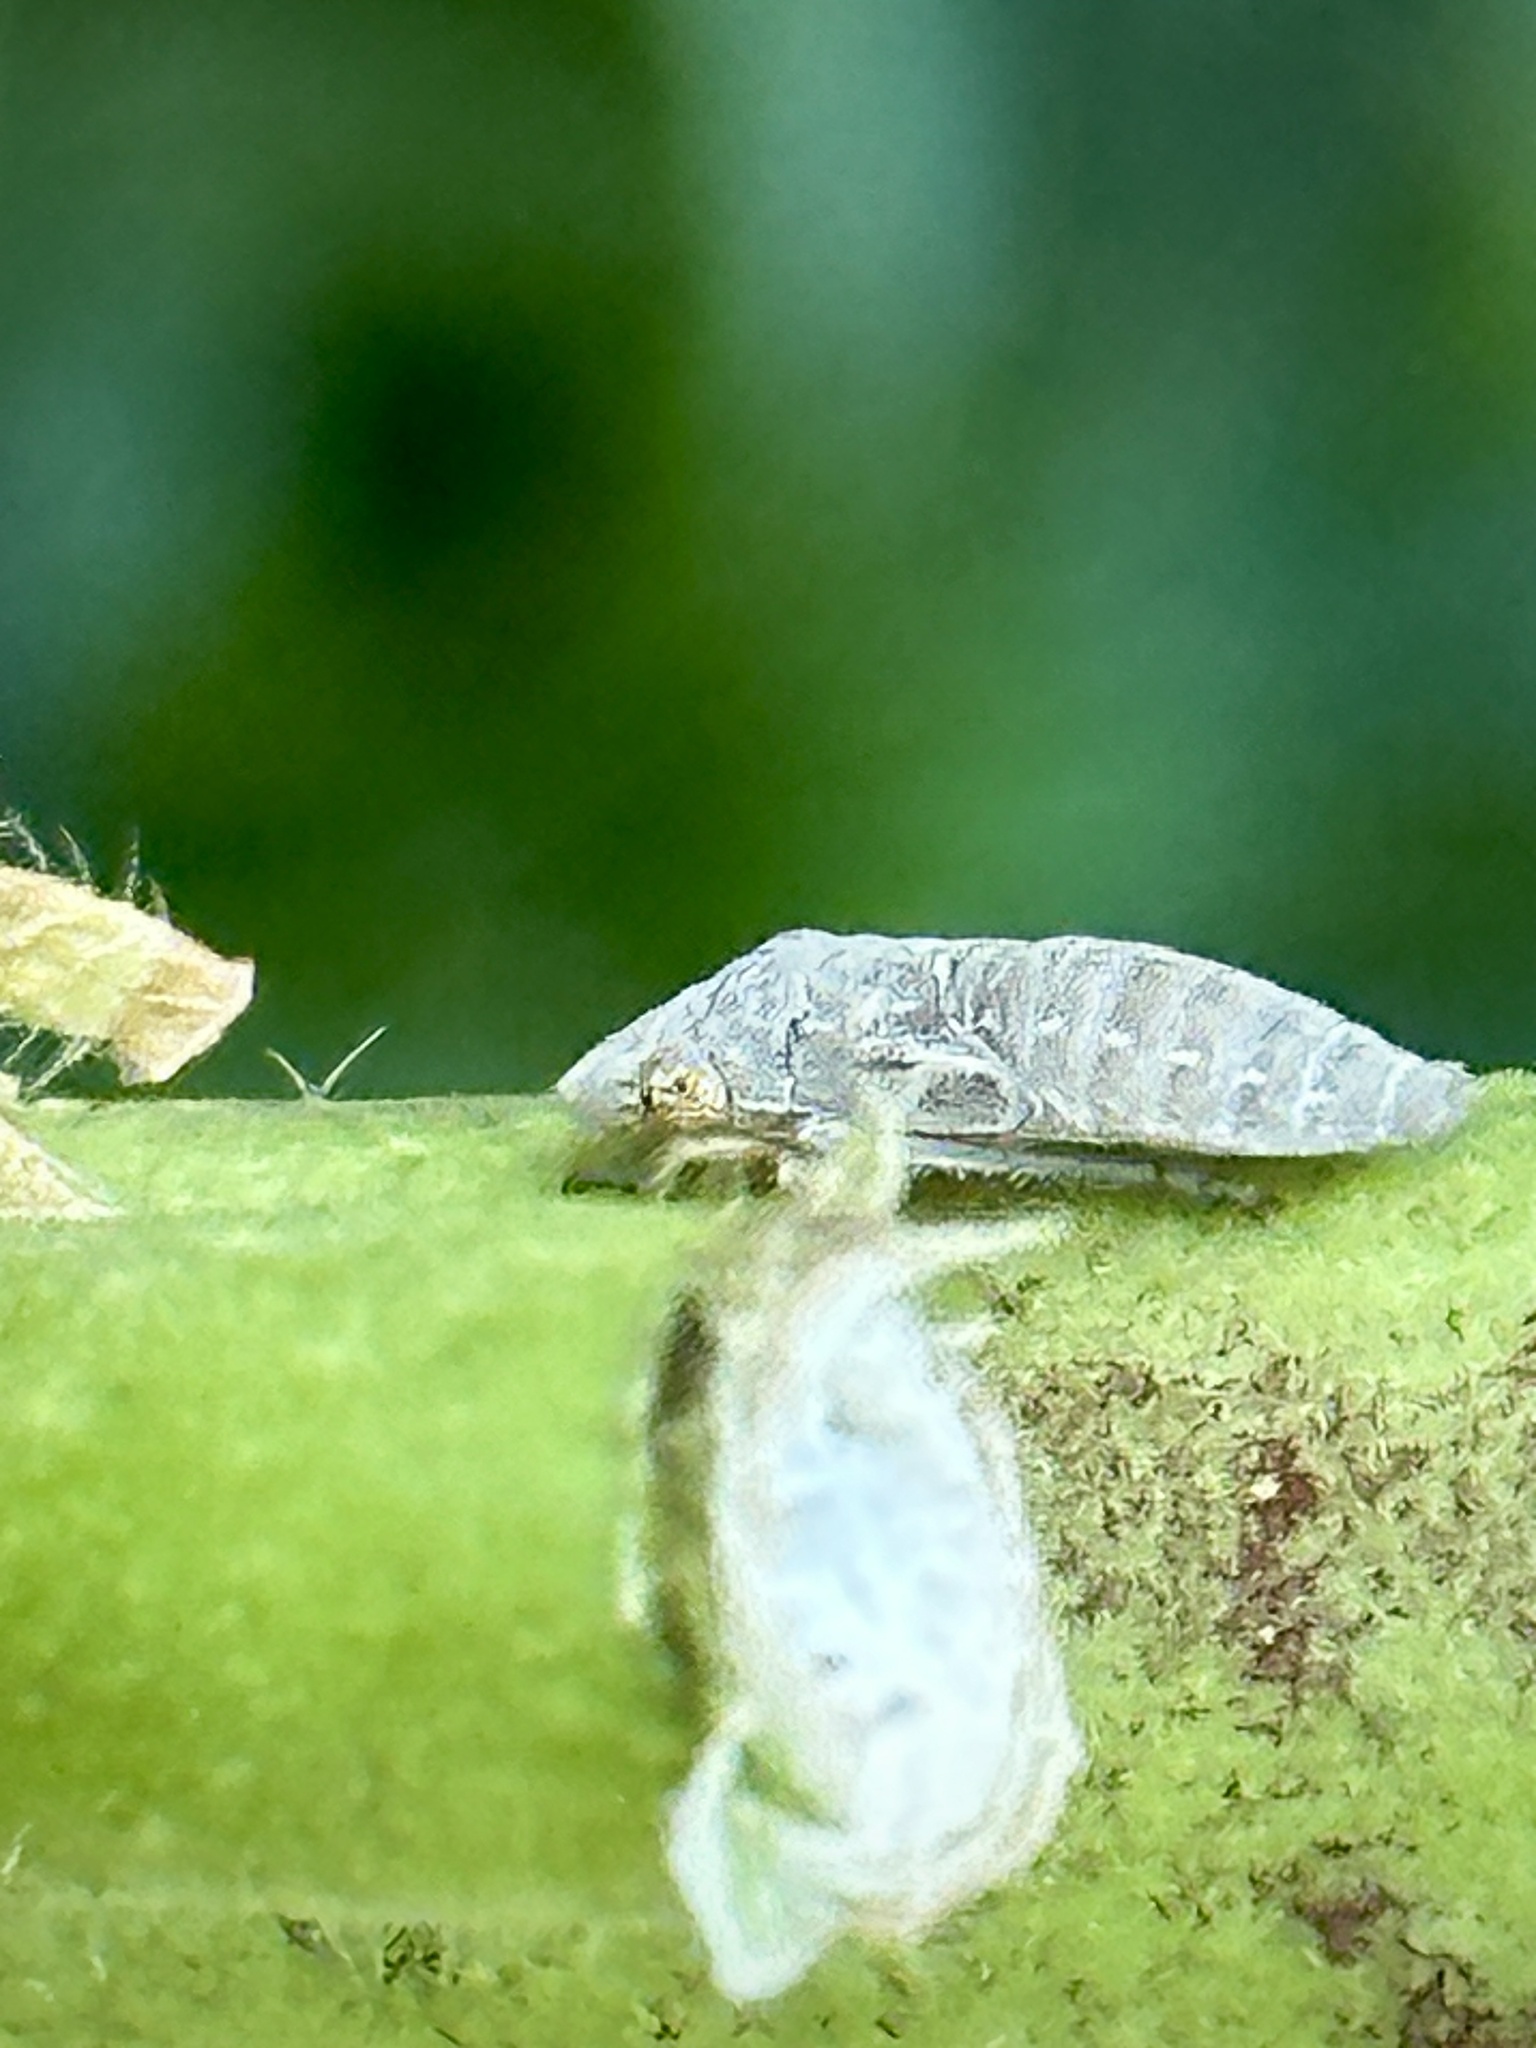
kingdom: Animalia
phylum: Arthropoda
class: Insecta
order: Hemiptera
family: Cicadellidae
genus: Homalodisca
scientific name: Homalodisca vitripennis
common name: Glassy-winged sharpshooter
